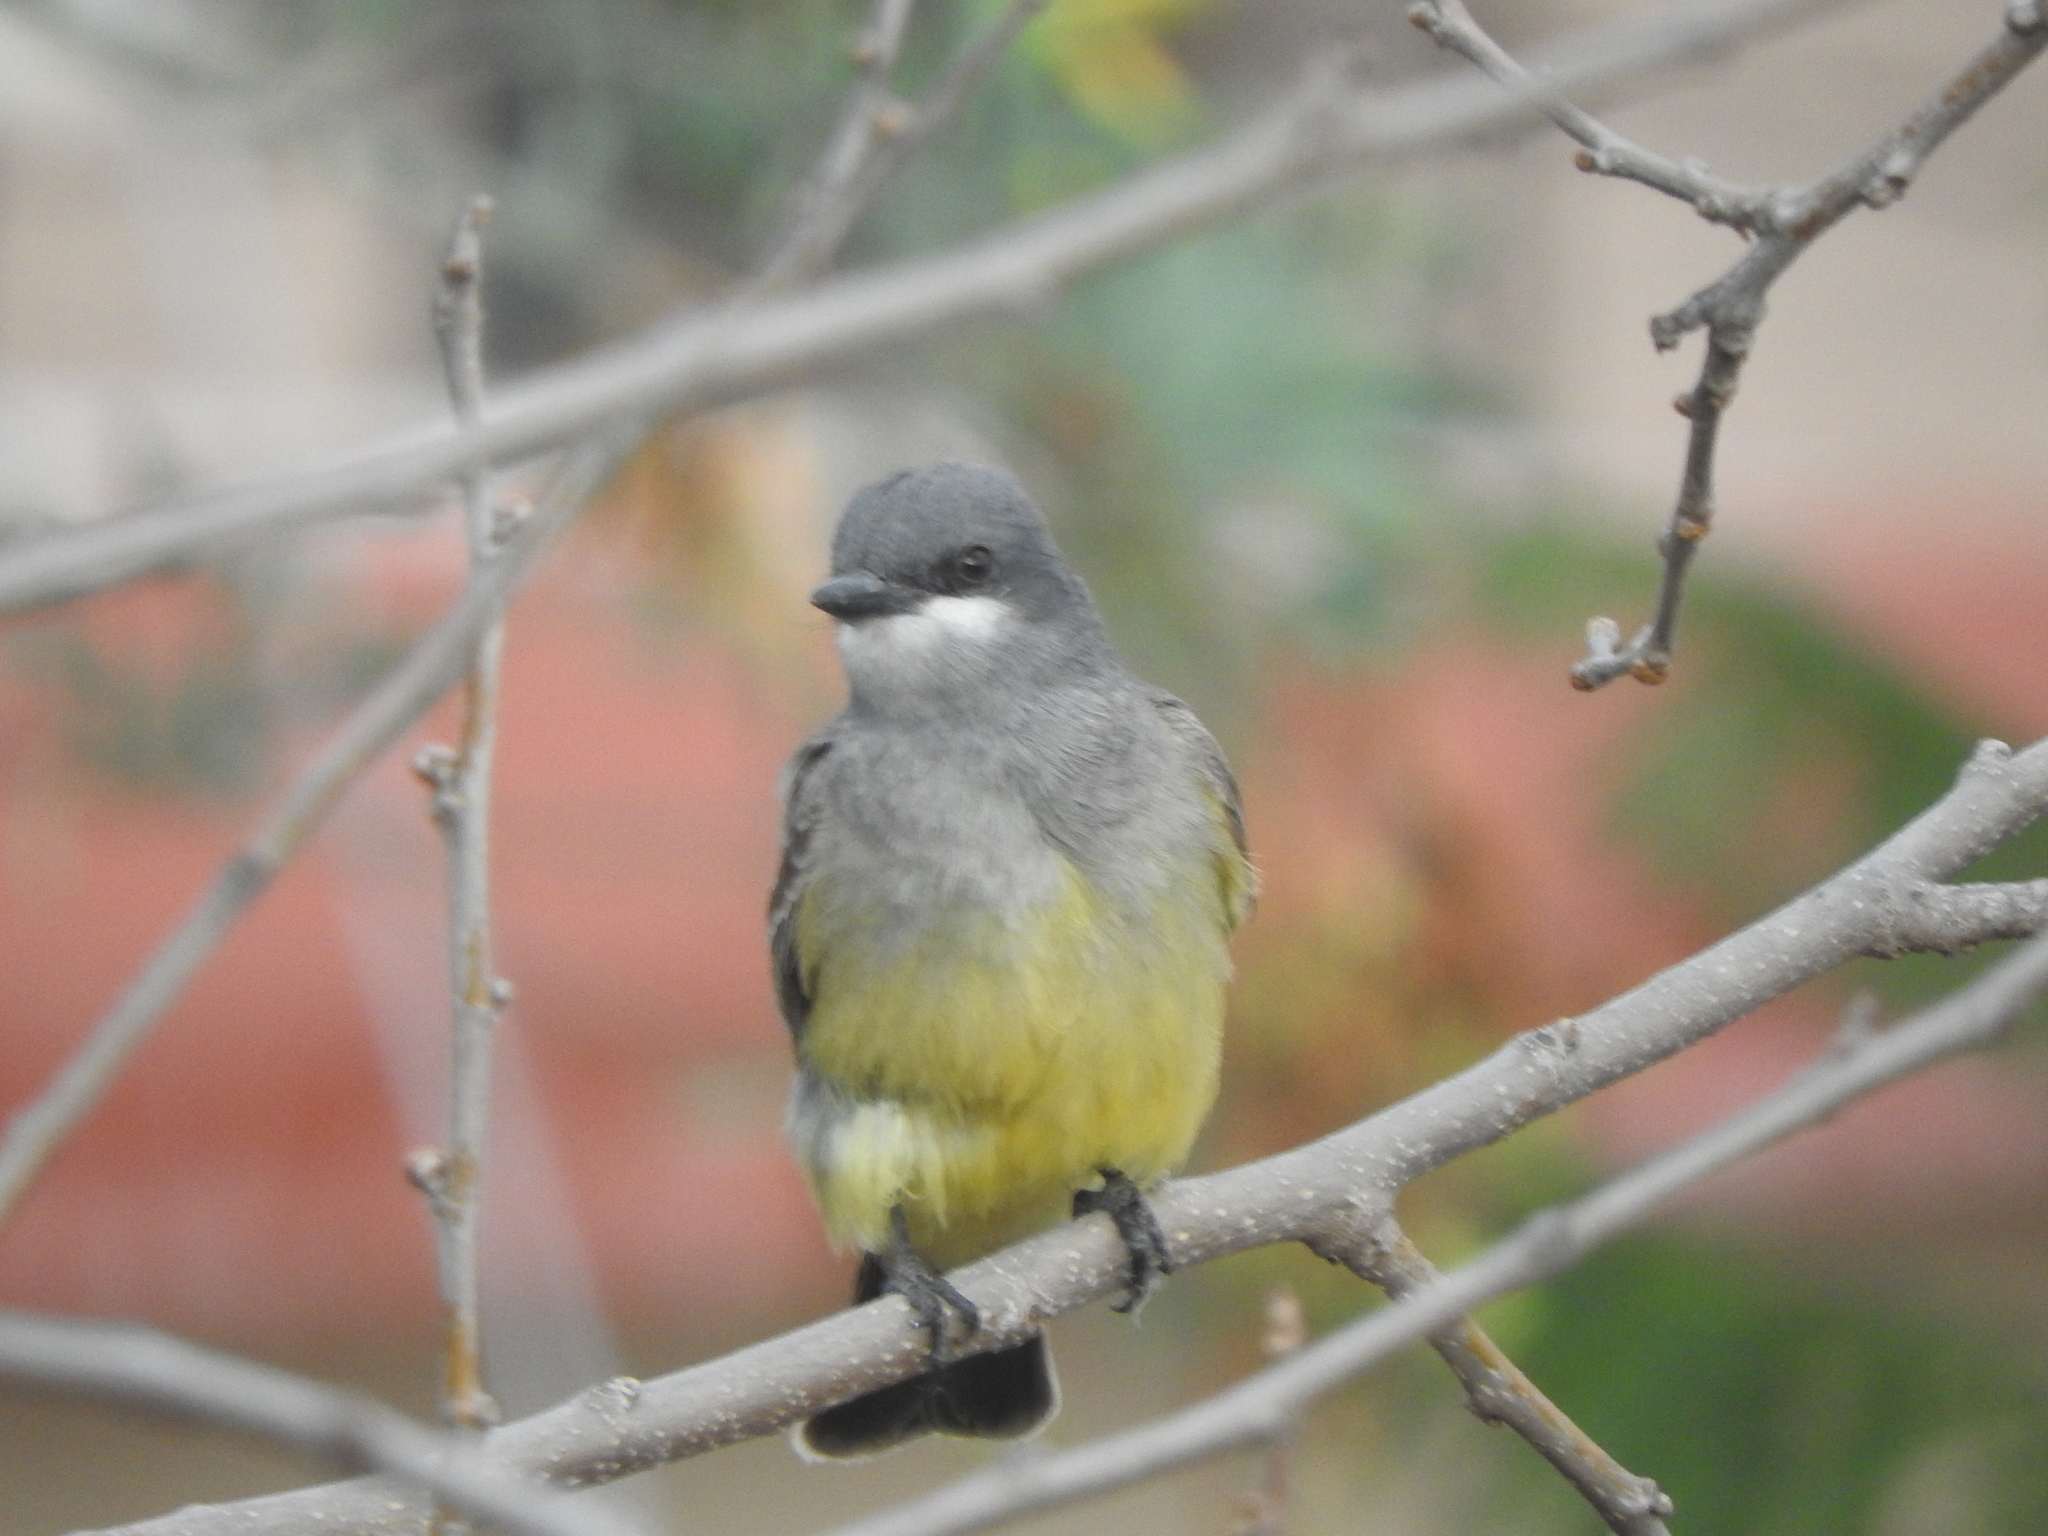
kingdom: Animalia
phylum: Chordata
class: Aves
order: Passeriformes
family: Tyrannidae
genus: Tyrannus
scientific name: Tyrannus vociferans
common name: Cassin's kingbird
